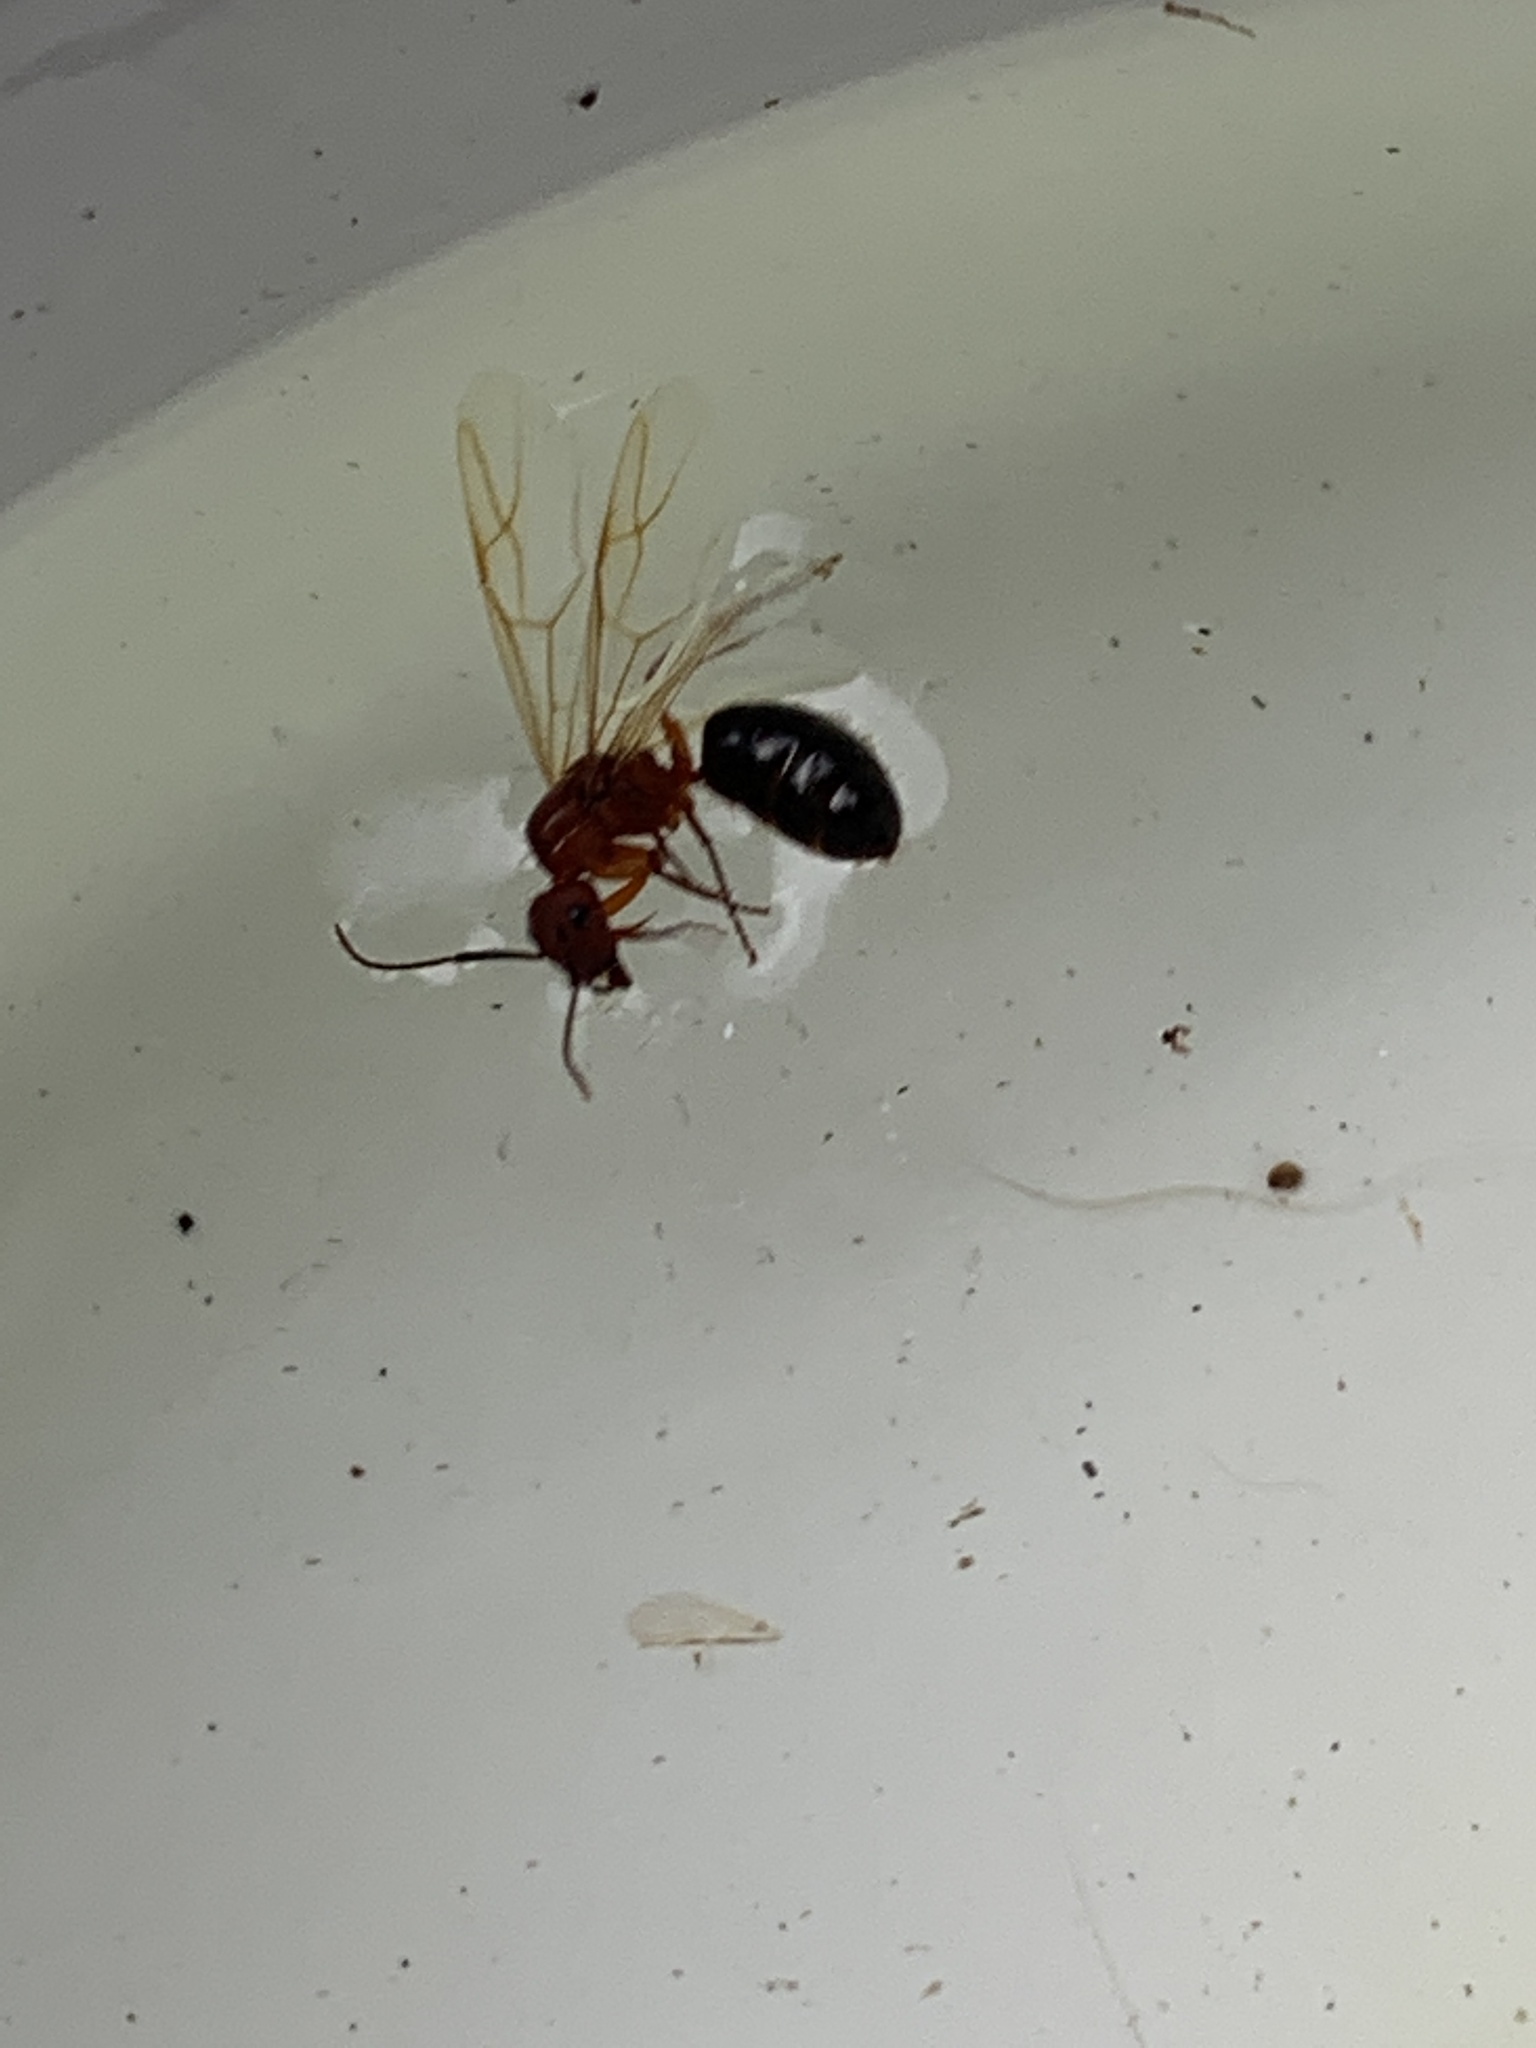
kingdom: Animalia
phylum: Arthropoda
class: Insecta
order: Hymenoptera
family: Formicidae
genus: Camponotus
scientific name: Camponotus floridanus
